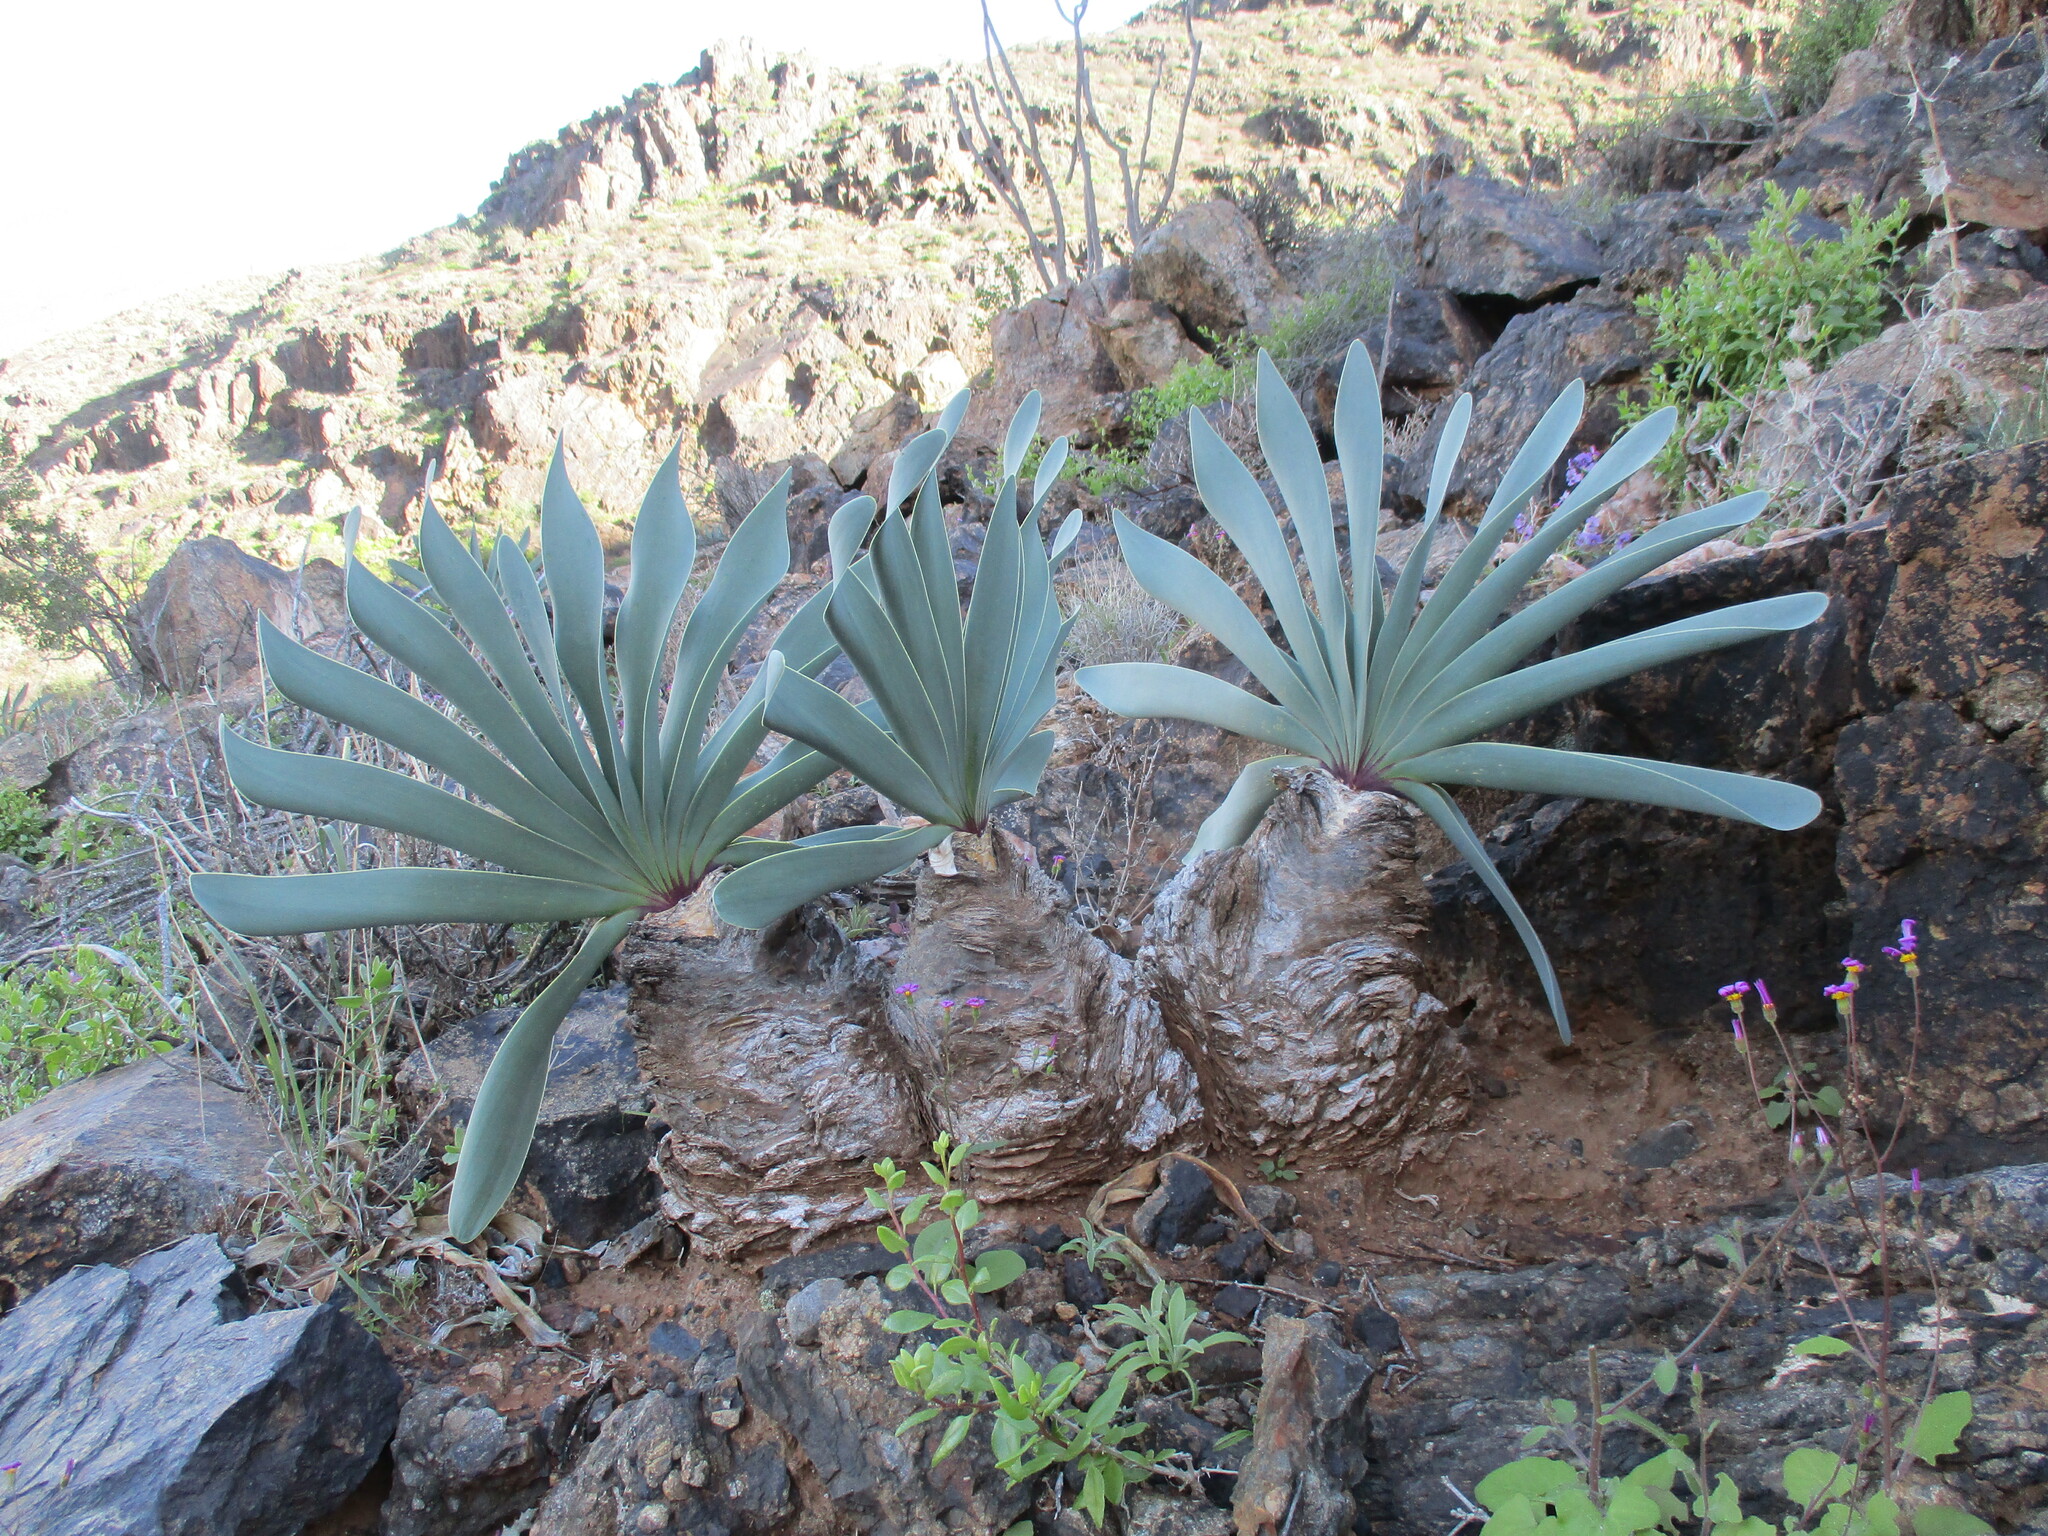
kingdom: Plantae
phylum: Tracheophyta
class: Liliopsida
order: Asparagales
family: Amaryllidaceae
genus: Boophone
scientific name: Boophone haemanthoides
